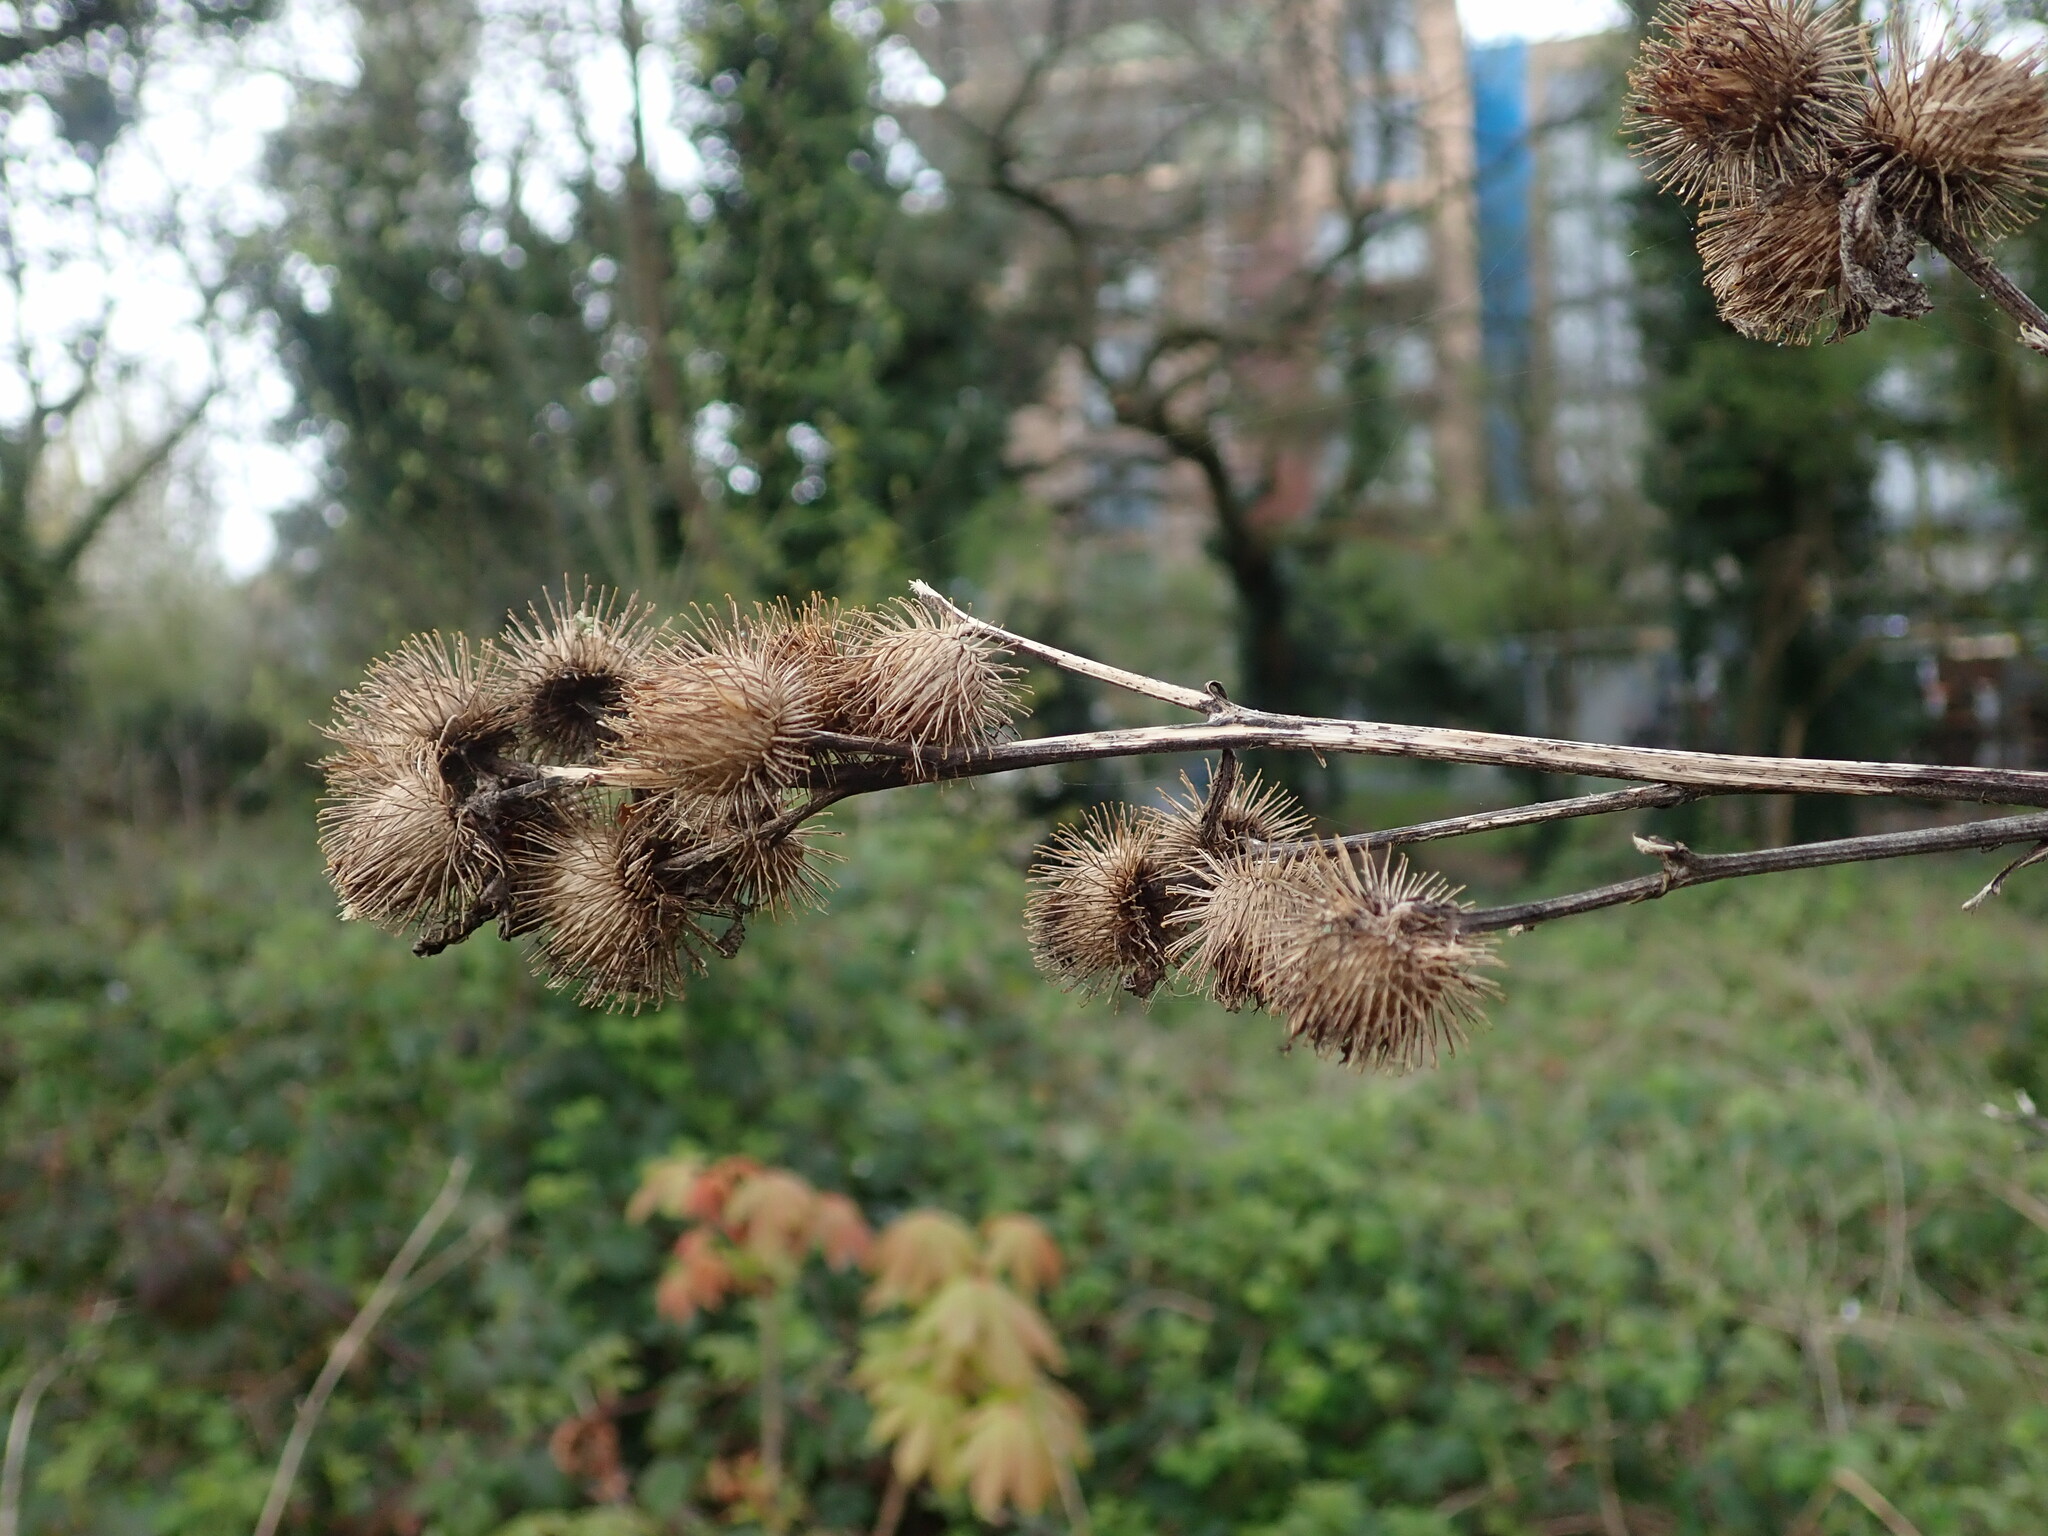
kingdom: Plantae
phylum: Tracheophyta
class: Magnoliopsida
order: Asterales
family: Asteraceae
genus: Arctium
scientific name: Arctium minus
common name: Lesser burdock
